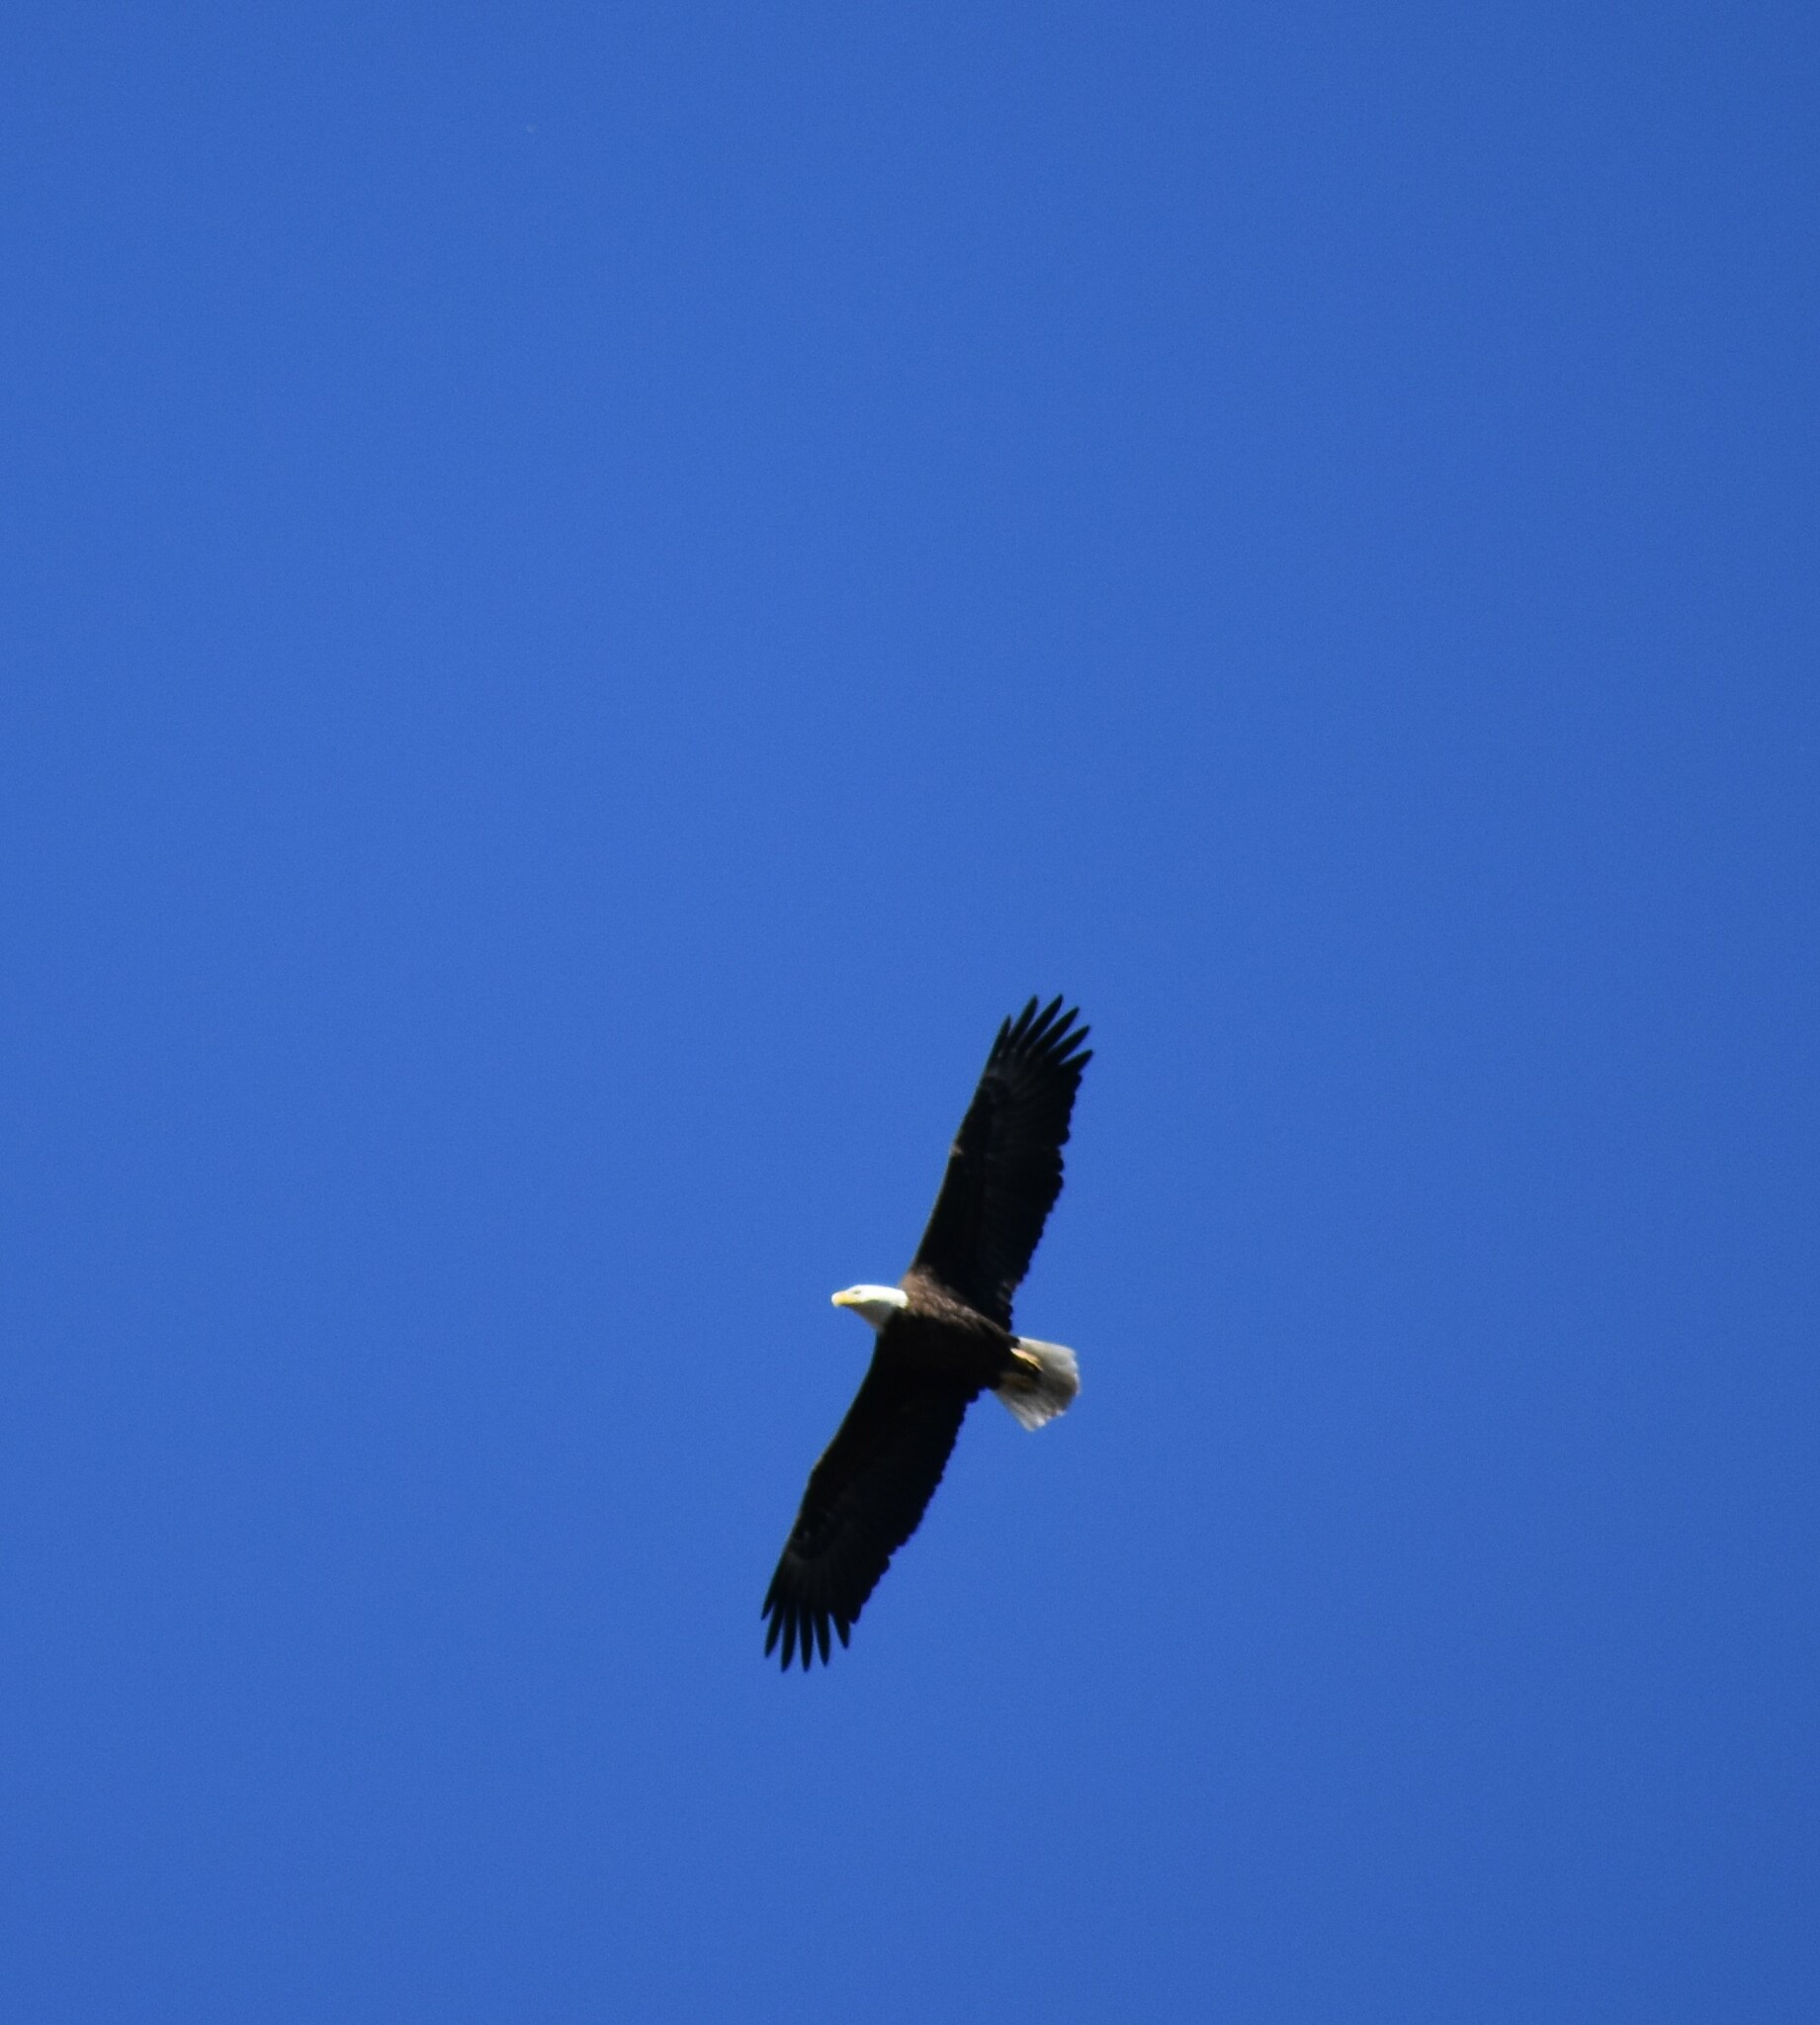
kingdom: Animalia
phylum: Chordata
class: Aves
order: Accipitriformes
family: Accipitridae
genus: Haliaeetus
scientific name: Haliaeetus leucocephalus
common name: Bald eagle
